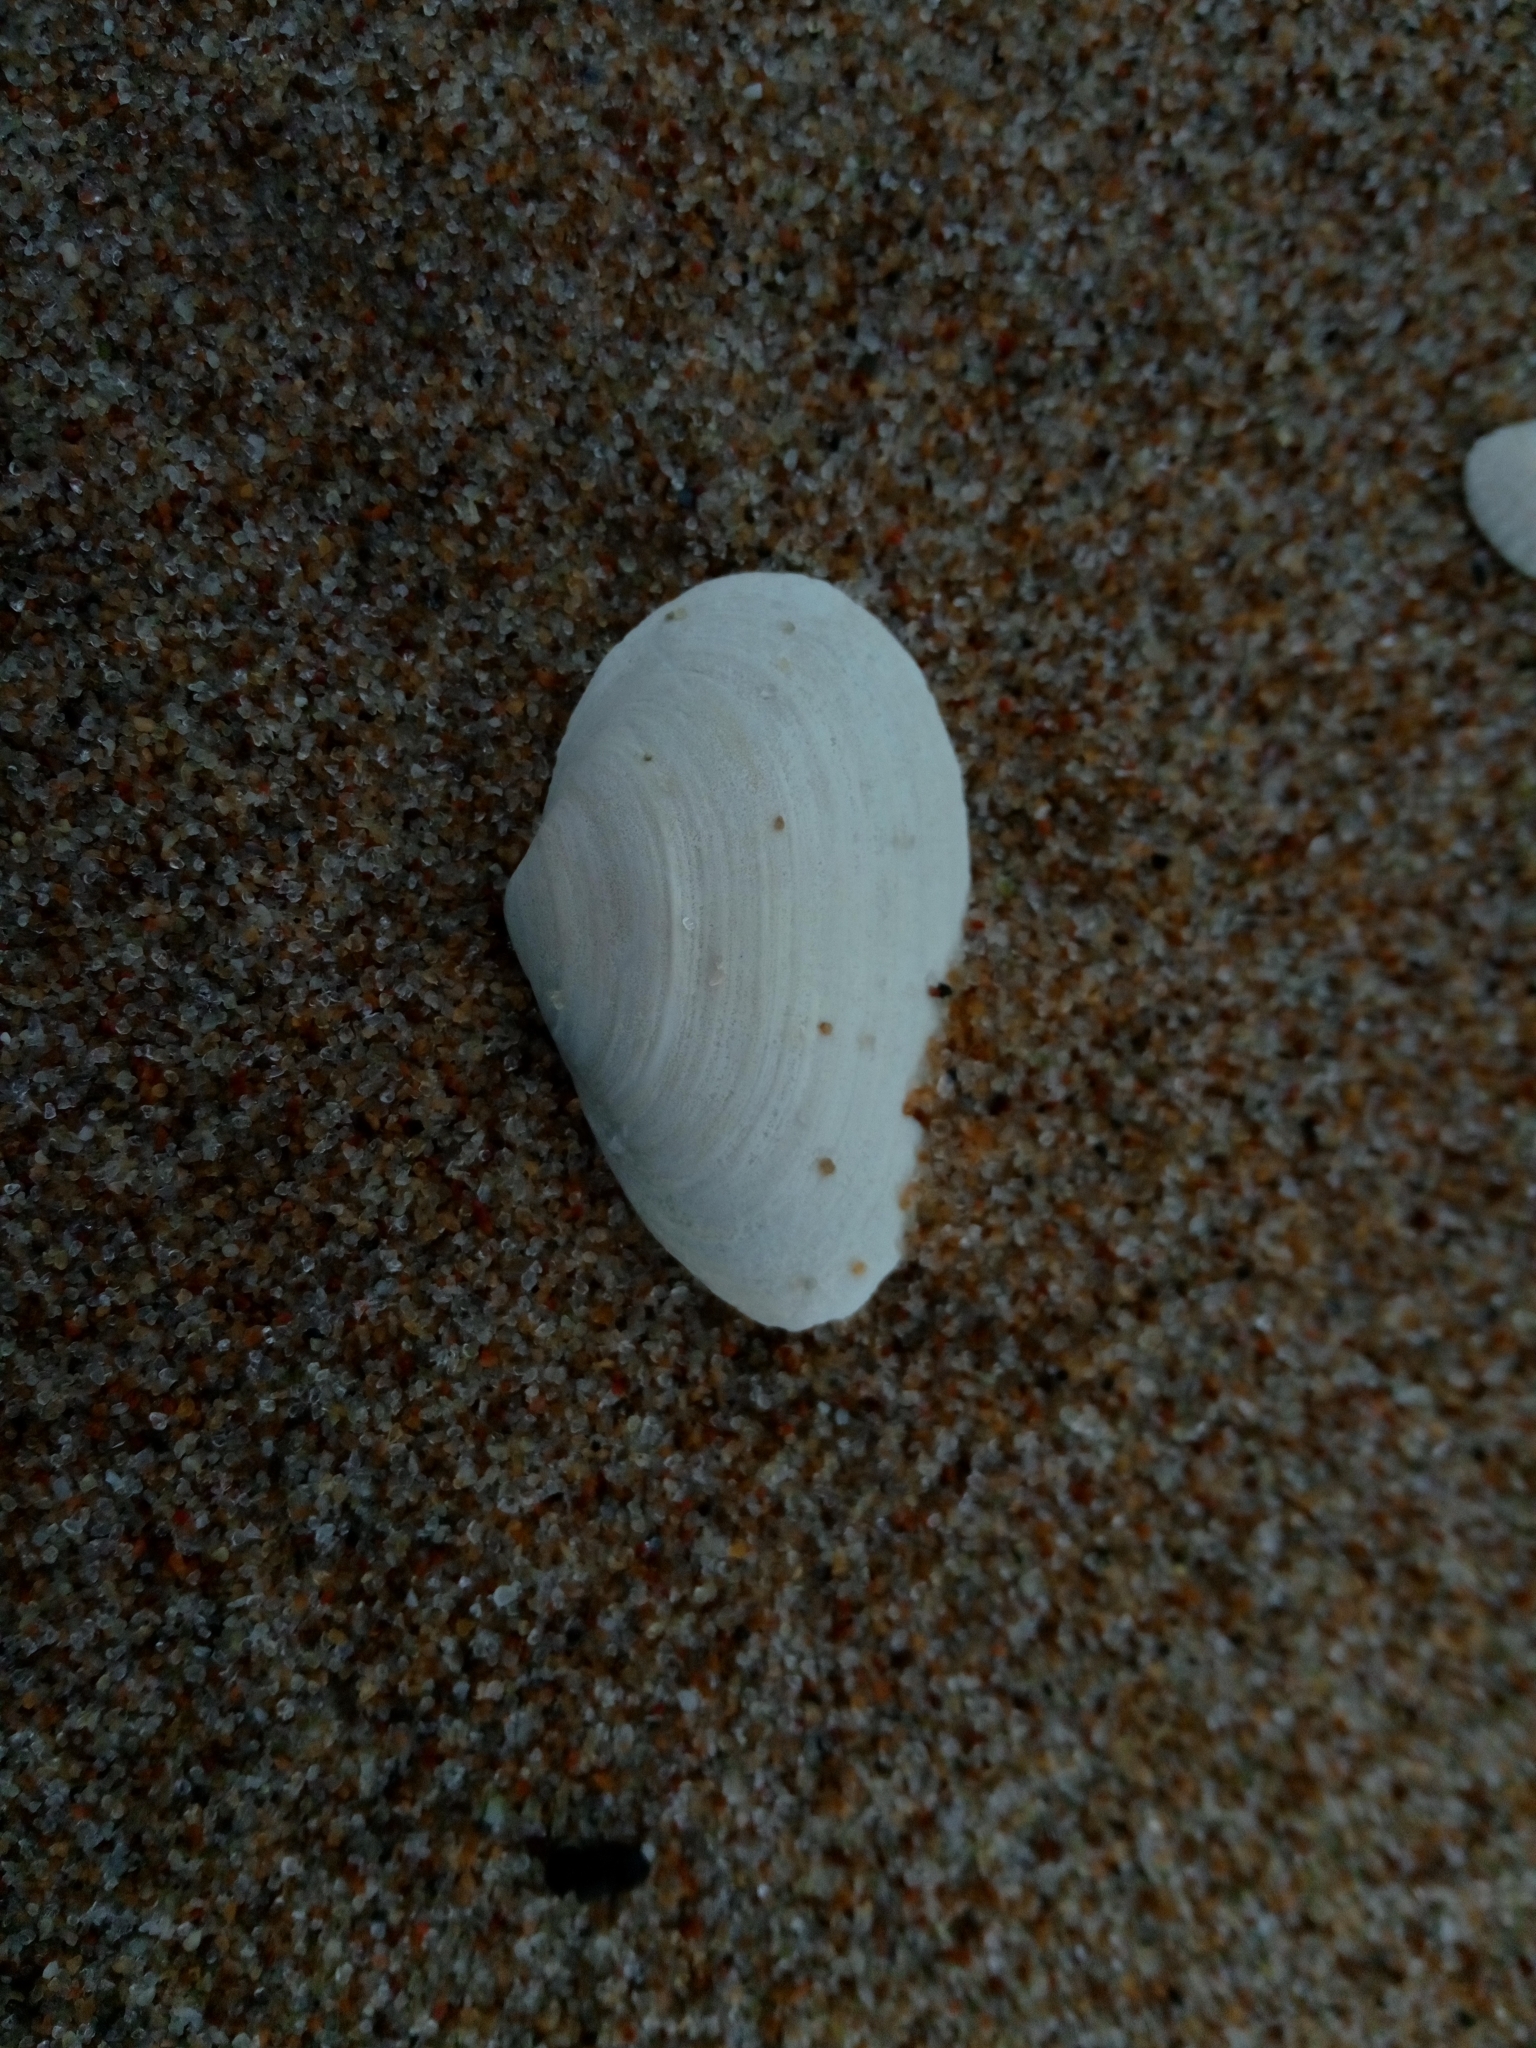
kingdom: Animalia
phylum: Mollusca
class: Bivalvia
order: Myida
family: Myidae
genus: Mya
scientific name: Mya arenaria
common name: Soft-shelled clam
